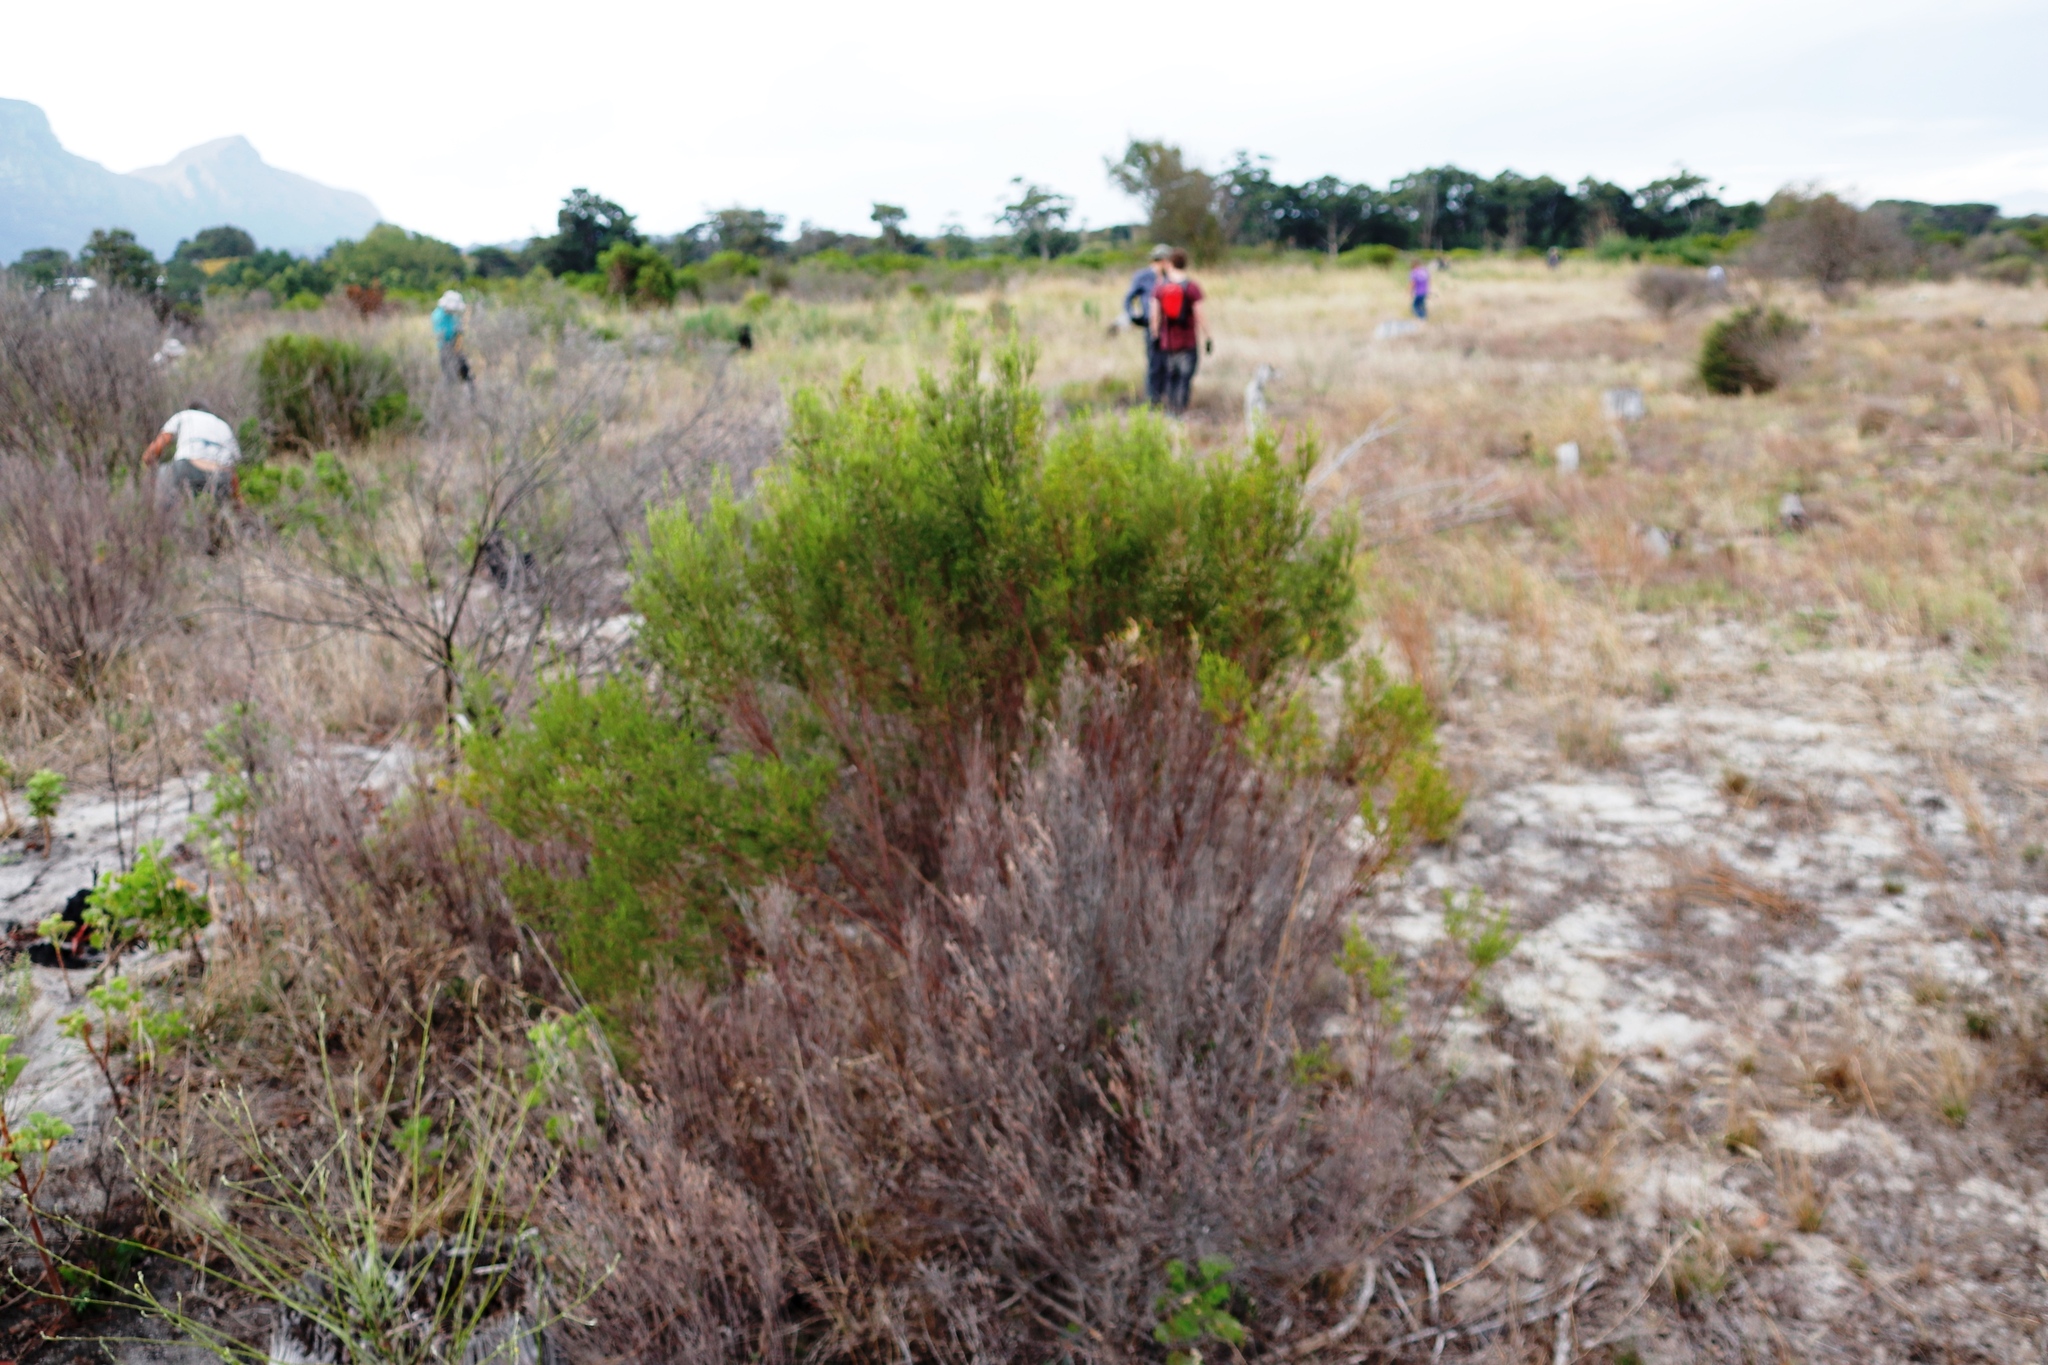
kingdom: Plantae
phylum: Tracheophyta
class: Magnoliopsida
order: Malvales
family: Thymelaeaceae
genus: Passerina
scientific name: Passerina corymbosa
